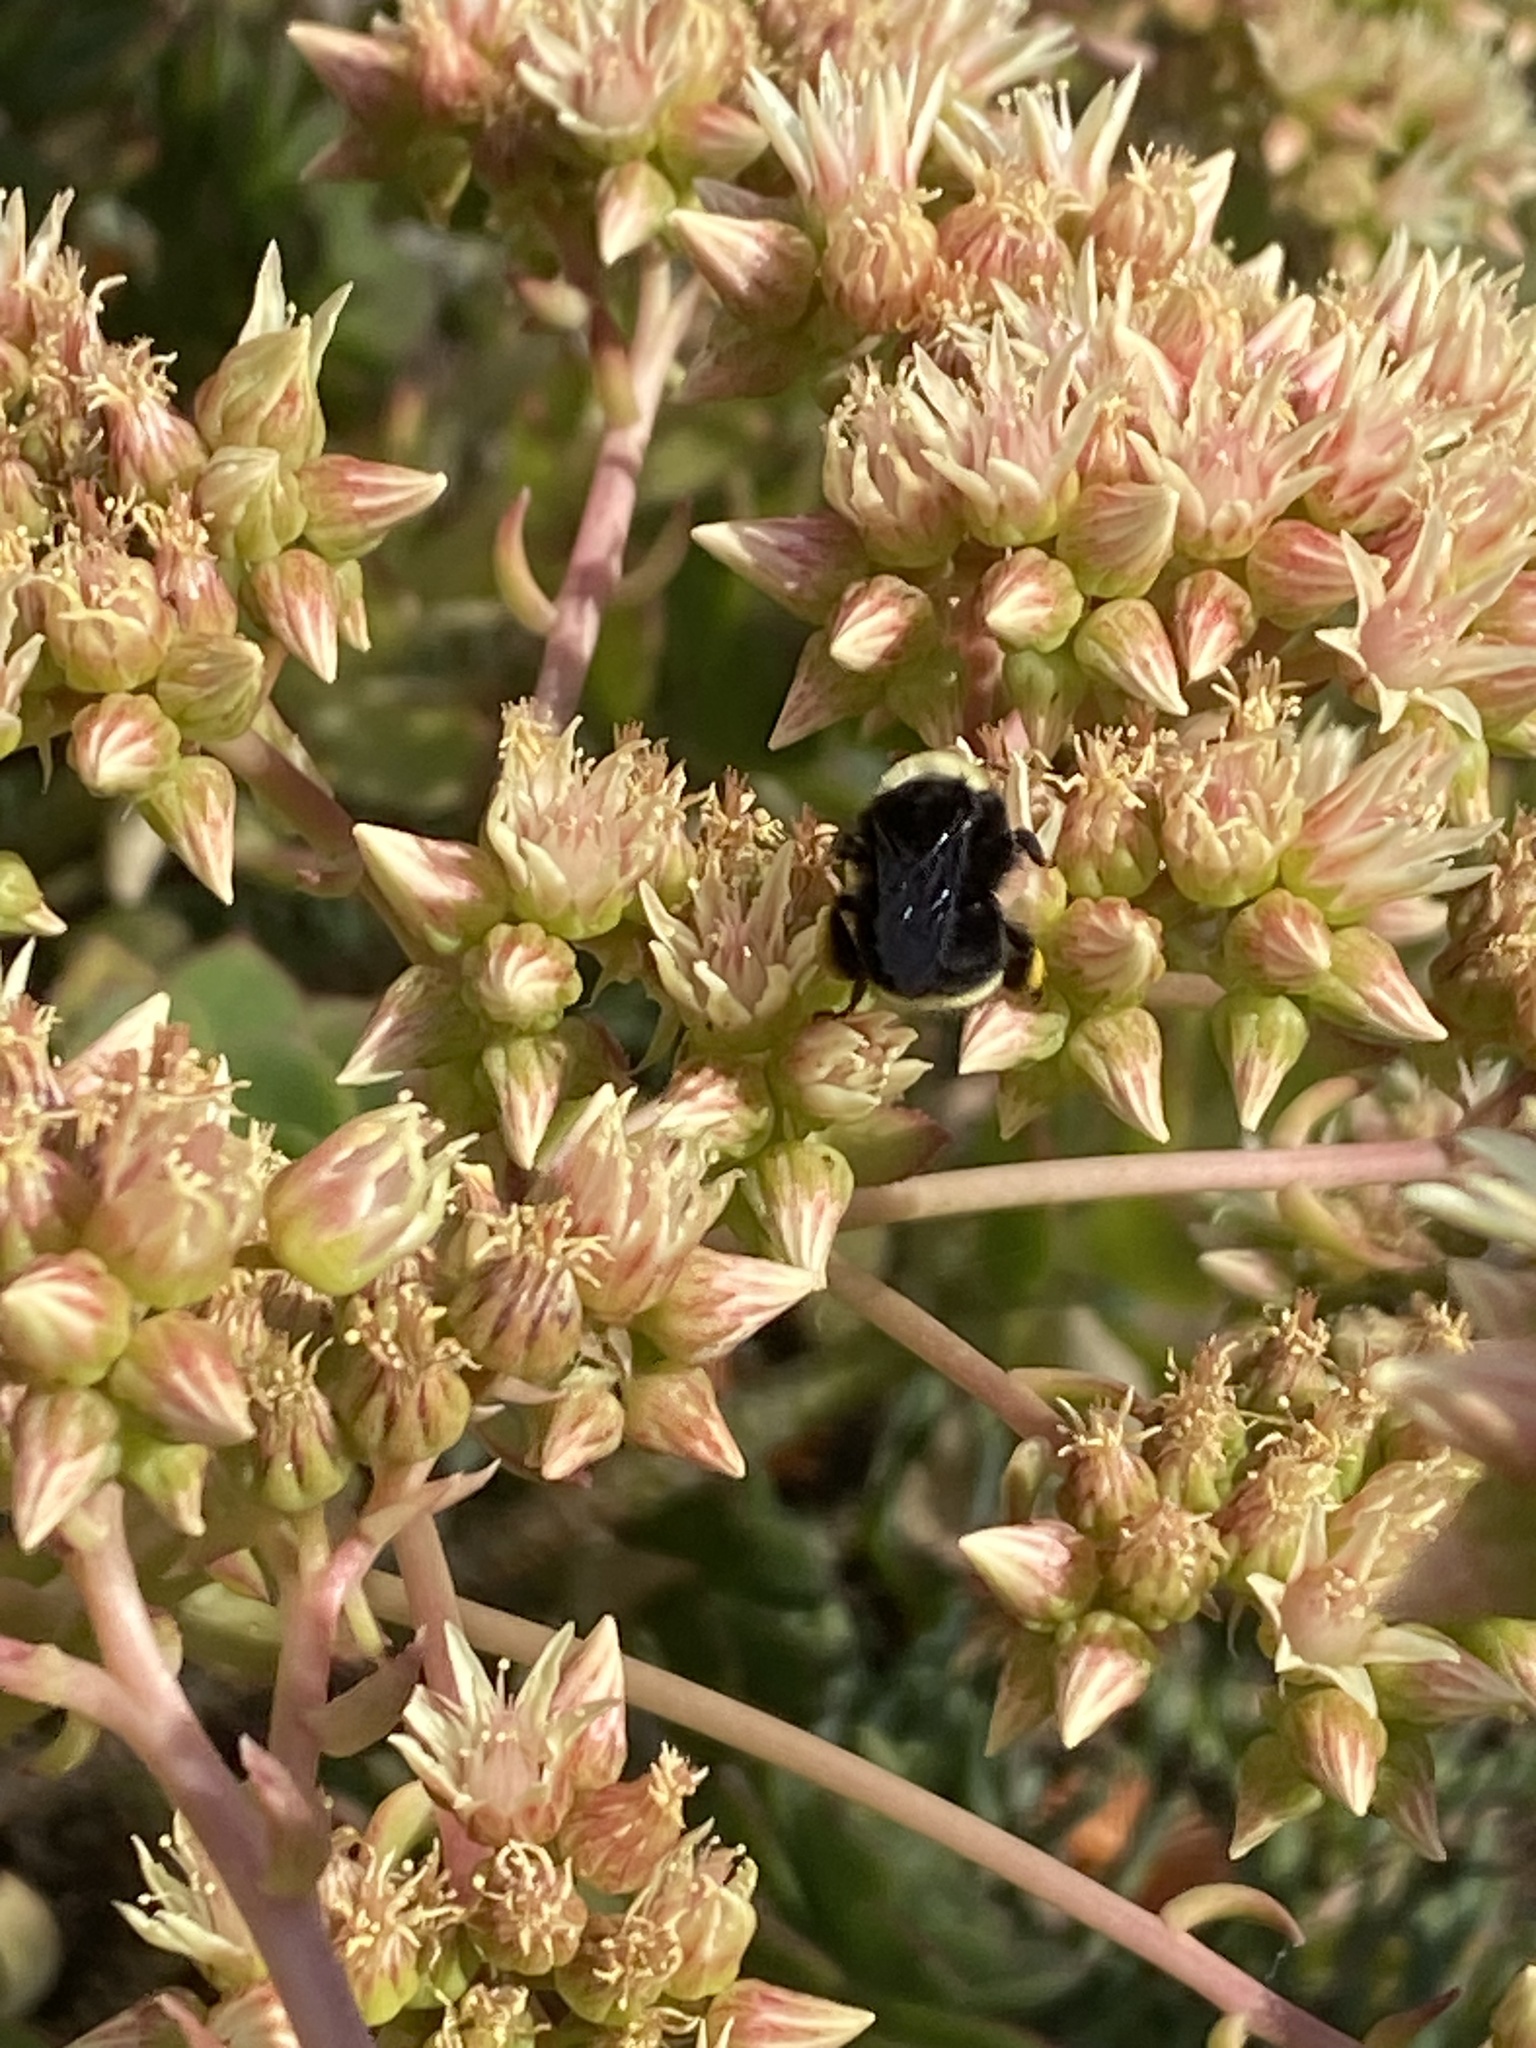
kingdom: Animalia
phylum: Arthropoda
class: Insecta
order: Hymenoptera
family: Apidae
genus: Bombus
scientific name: Bombus vosnesenskii
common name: Vosnesensky bumble bee
